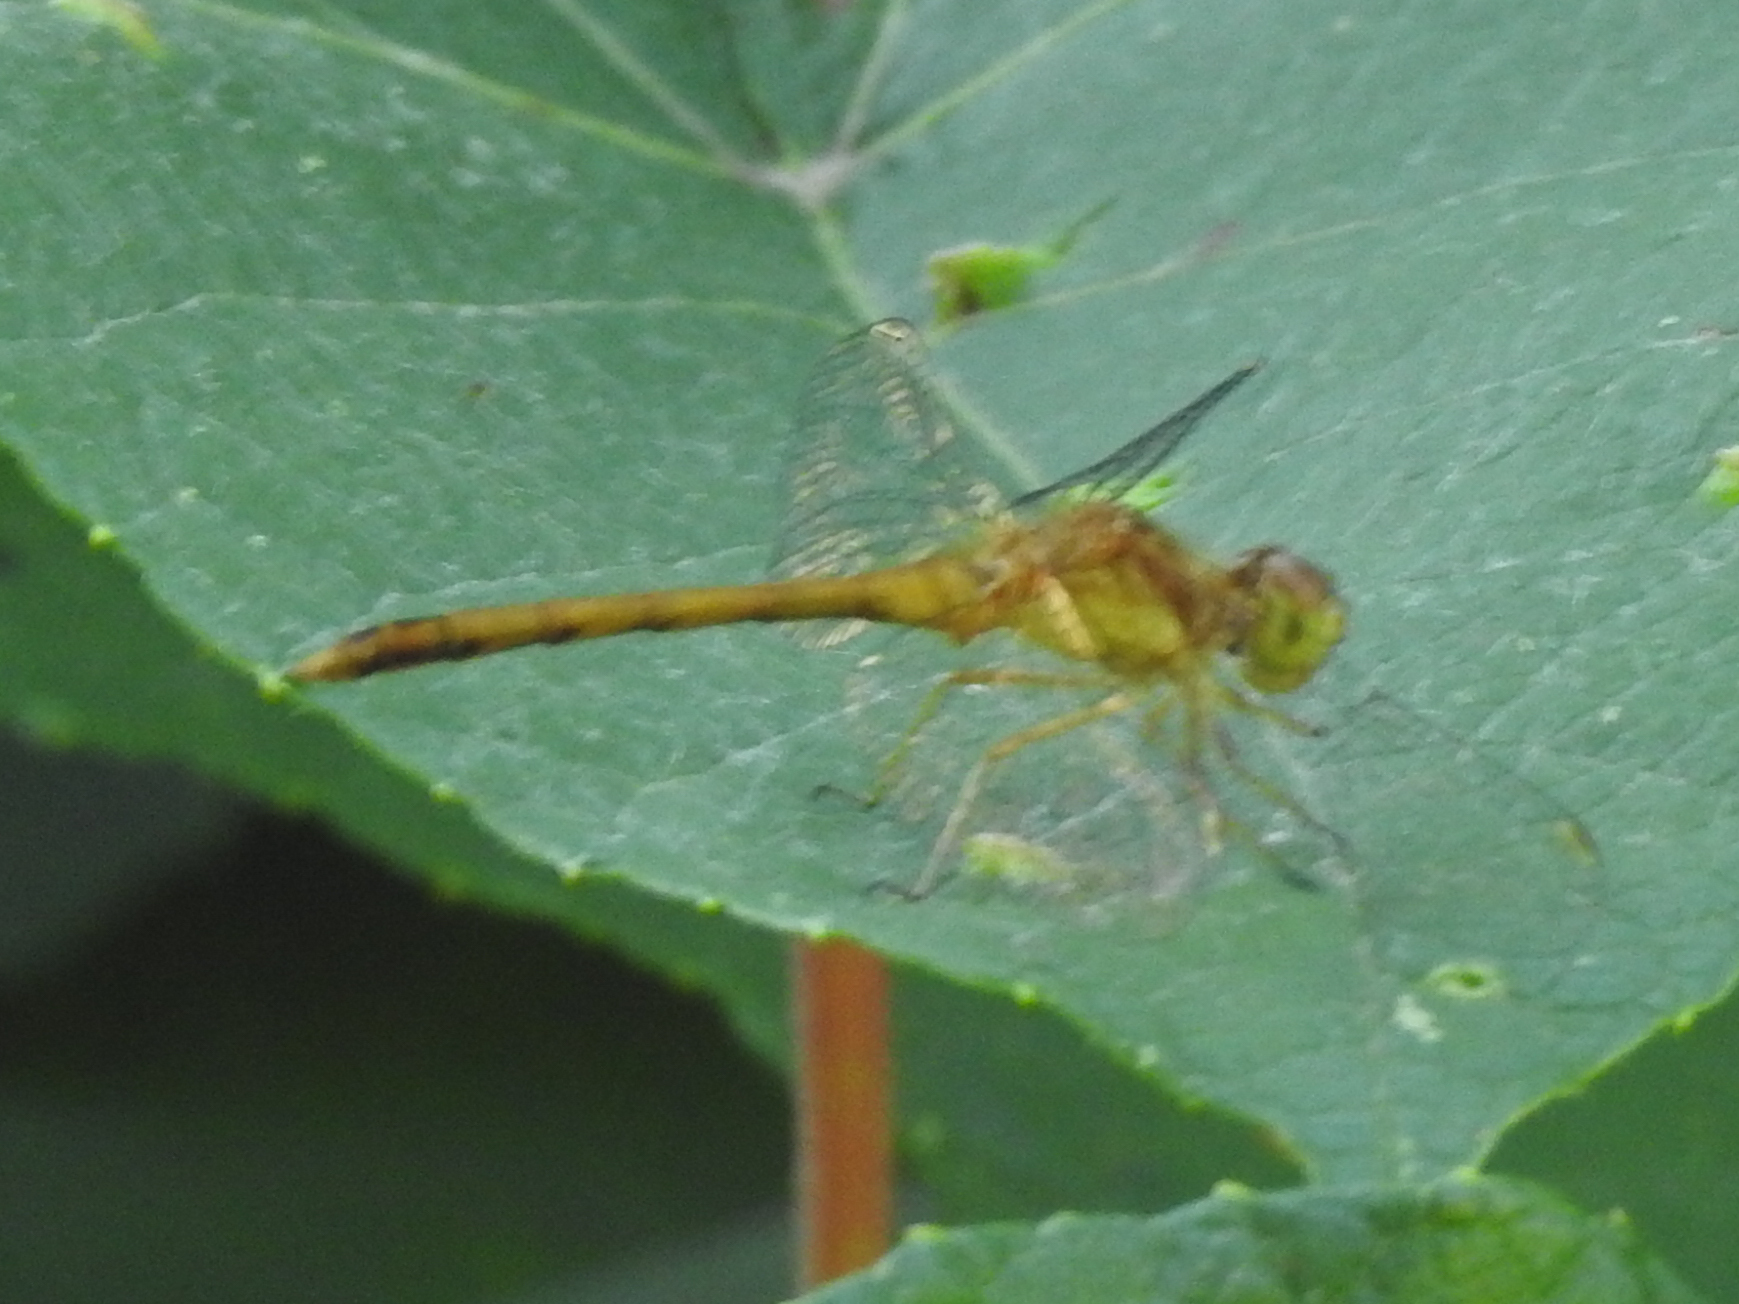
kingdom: Animalia
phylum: Arthropoda
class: Insecta
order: Odonata
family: Libellulidae
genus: Sympetrum
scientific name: Sympetrum vicinum
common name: Autumn meadowhawk
